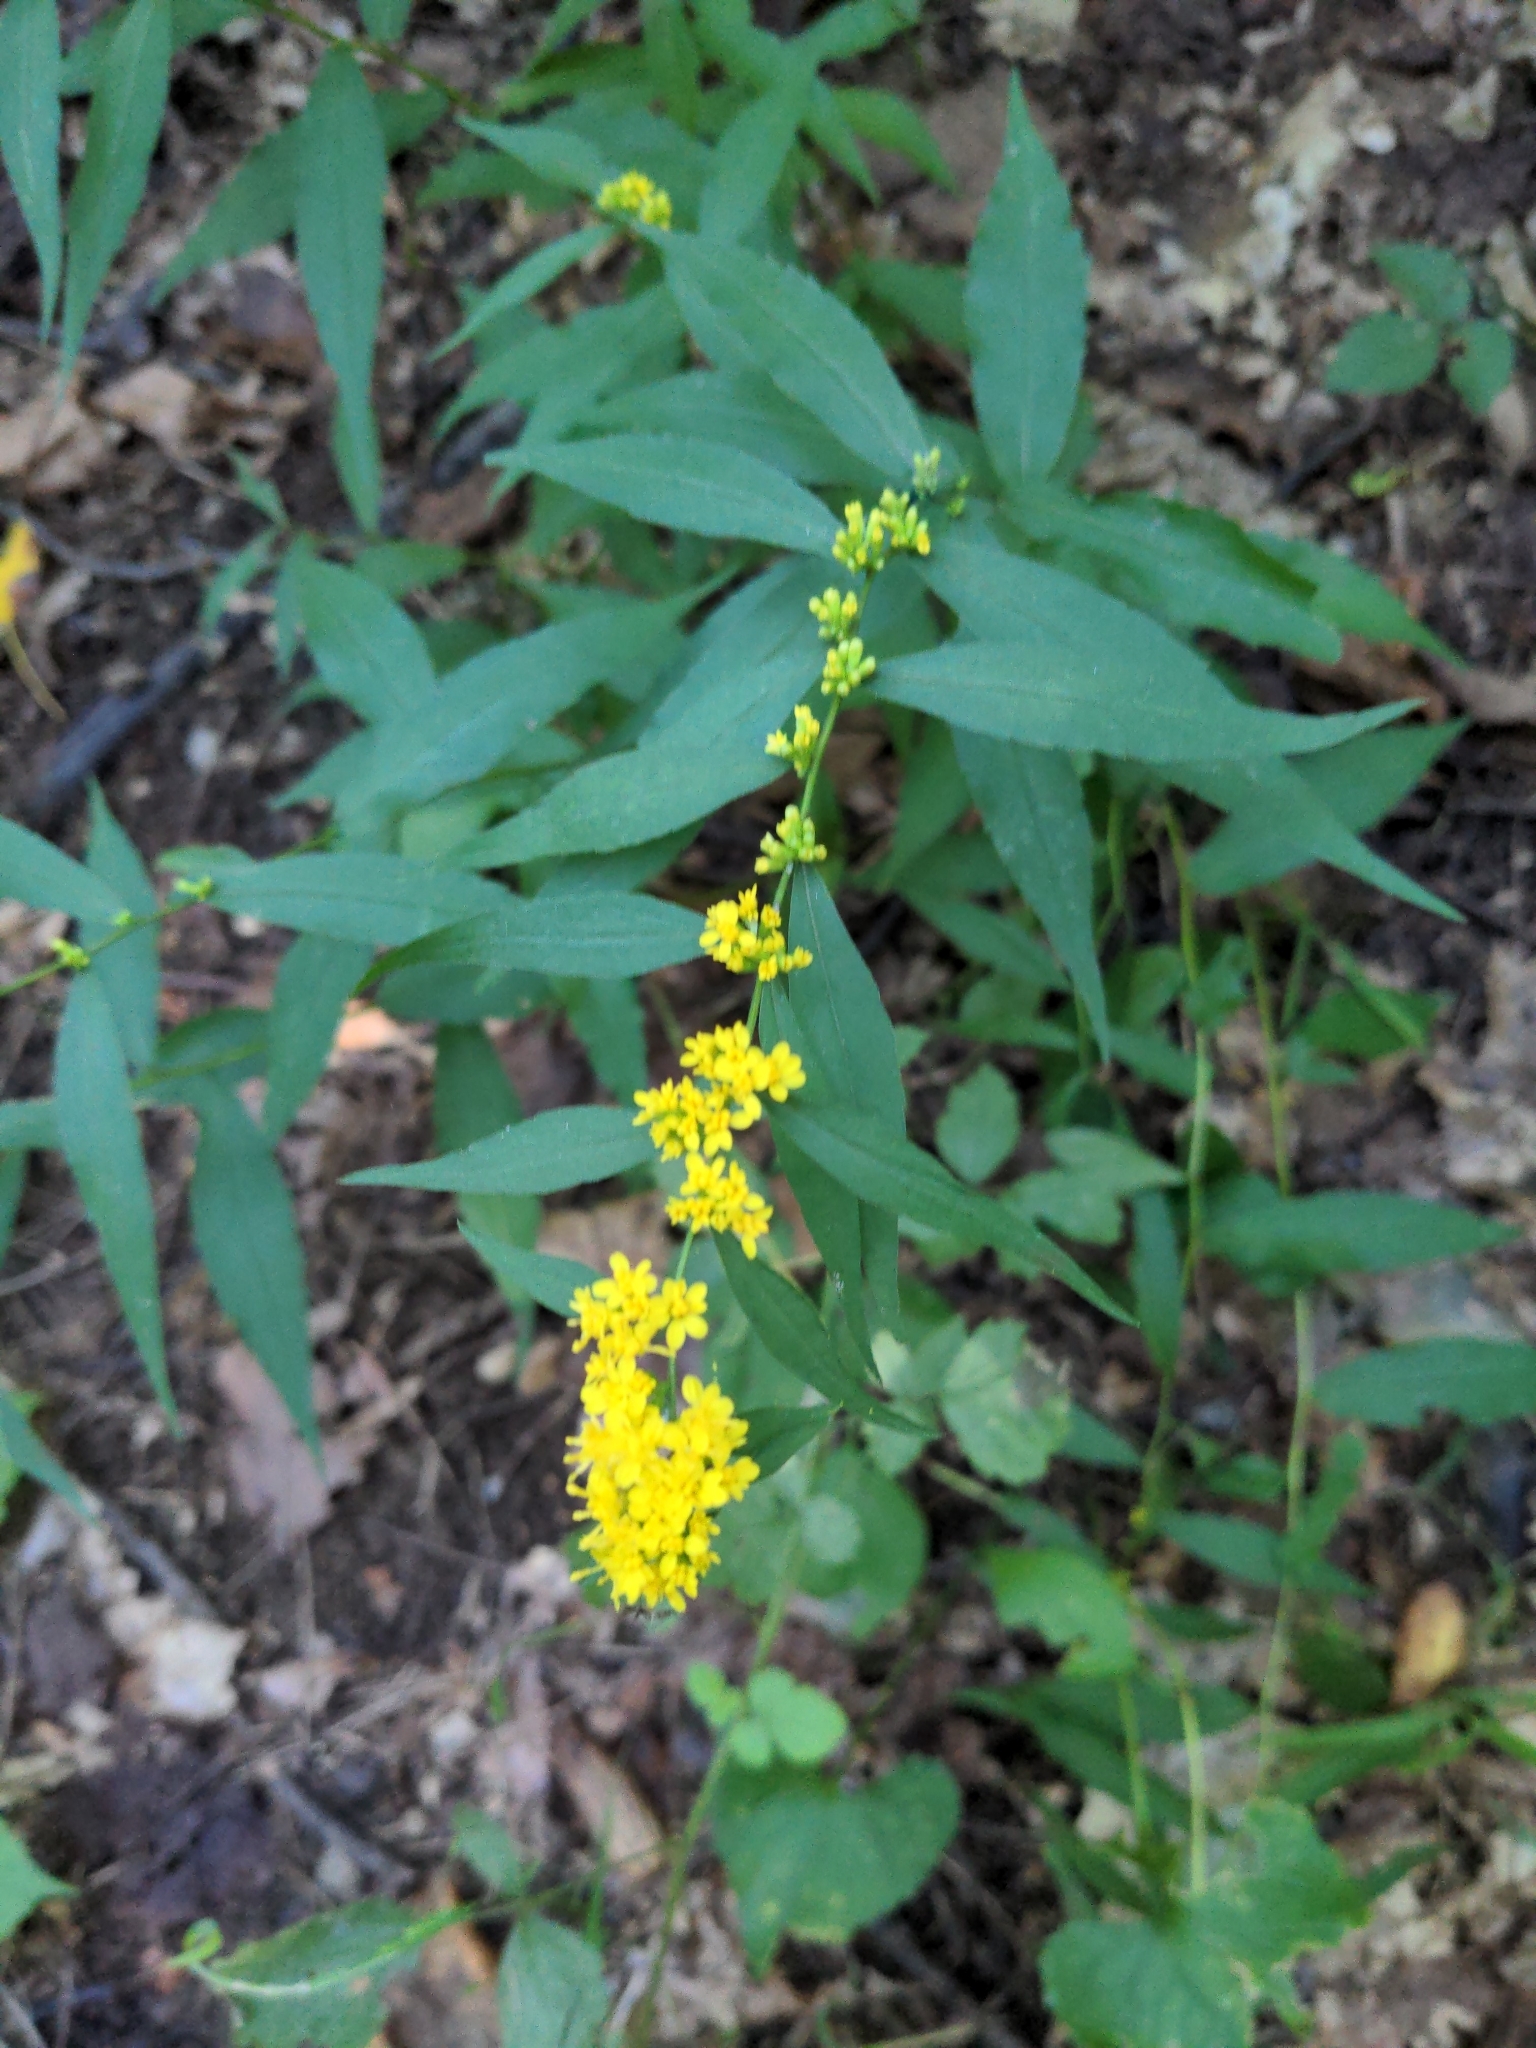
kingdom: Plantae
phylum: Tracheophyta
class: Magnoliopsida
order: Asterales
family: Asteraceae
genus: Solidago
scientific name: Solidago caesia
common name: Woodland goldenrod
